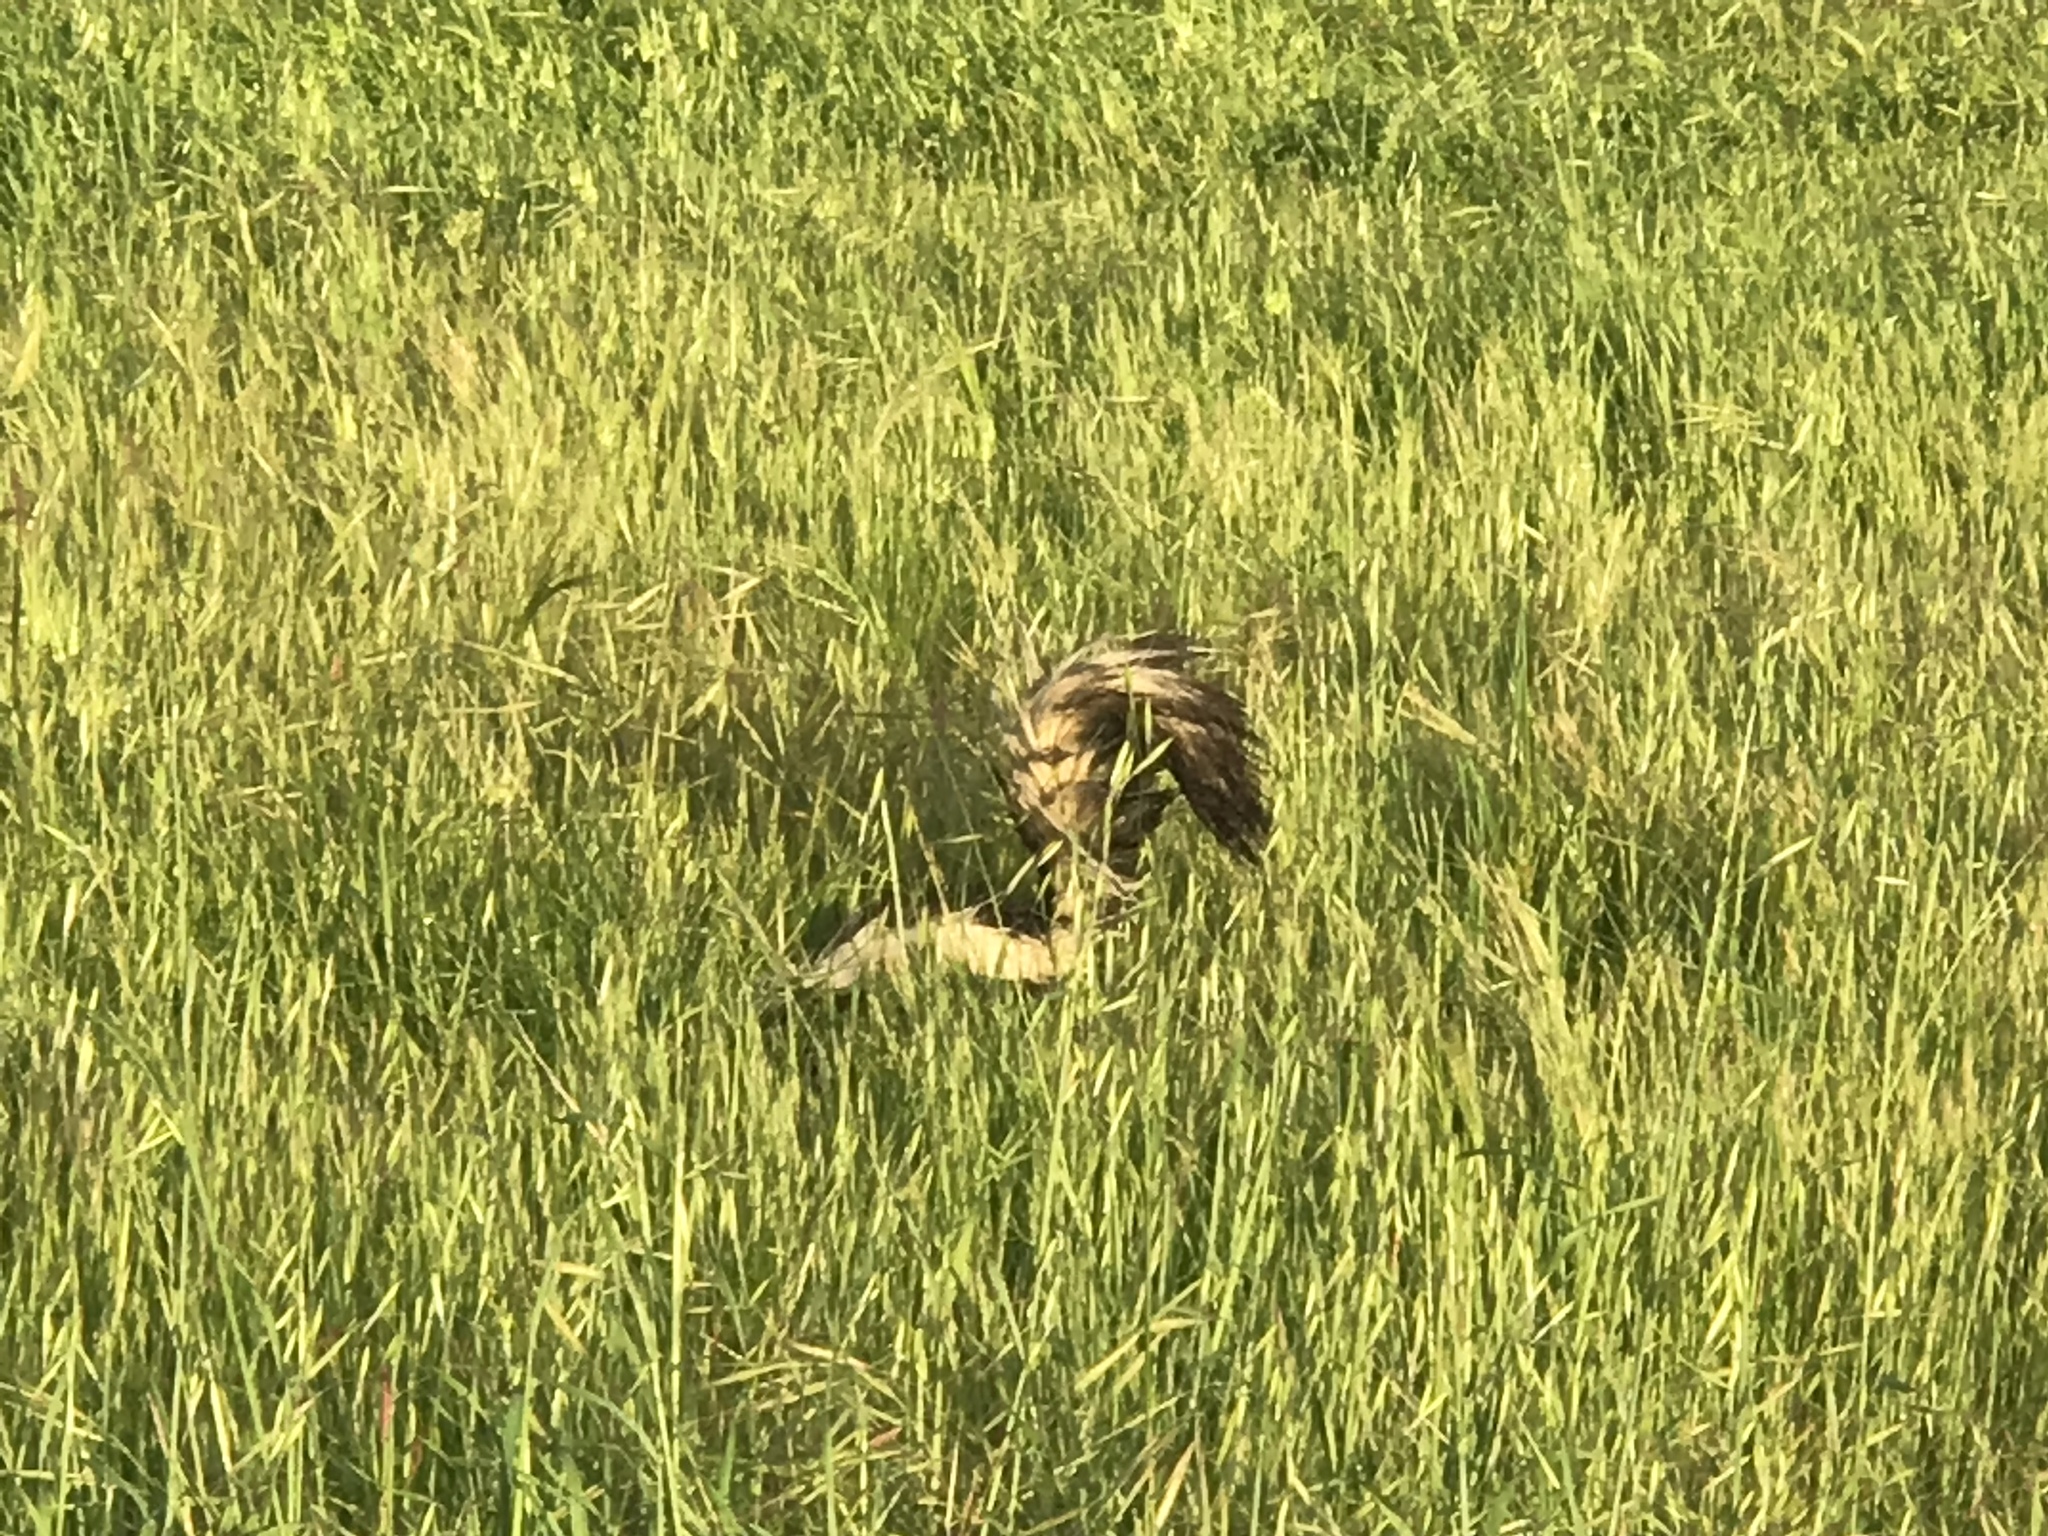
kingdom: Animalia
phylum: Chordata
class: Mammalia
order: Carnivora
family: Mephitidae
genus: Mephitis
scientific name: Mephitis mephitis
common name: Striped skunk
